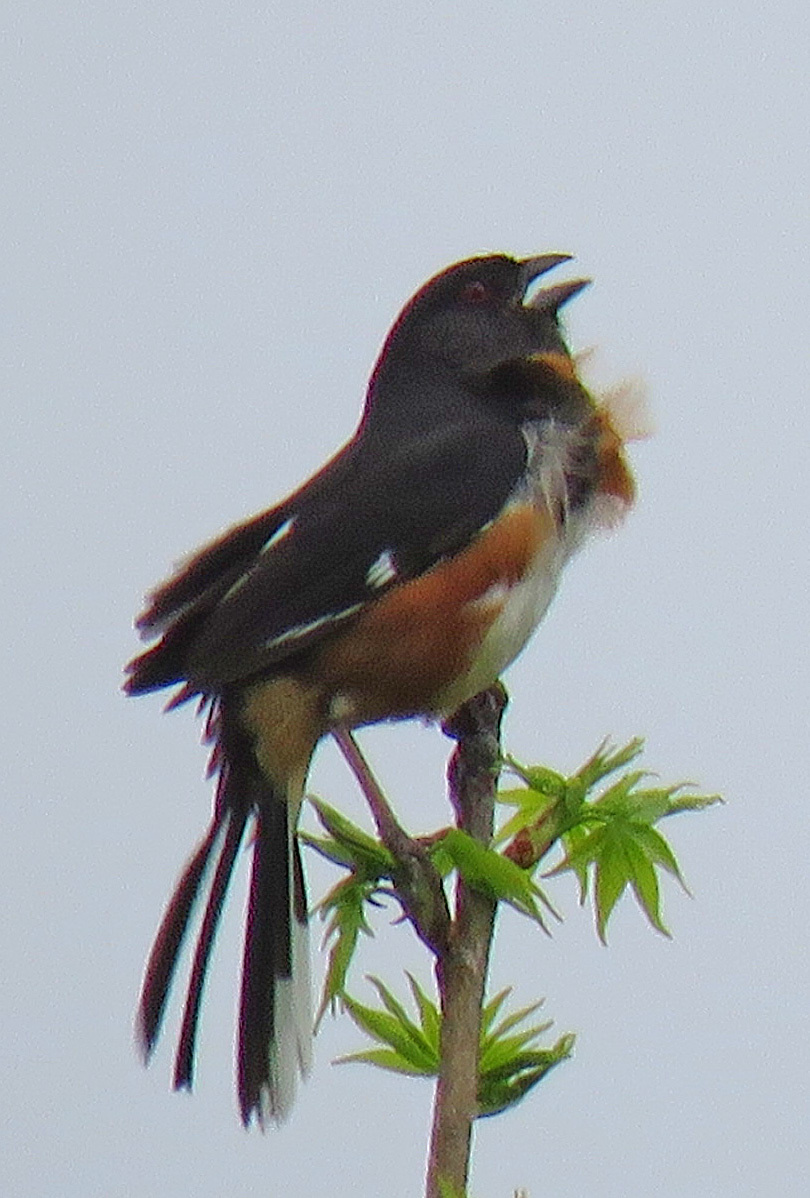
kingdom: Animalia
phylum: Chordata
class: Aves
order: Passeriformes
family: Passerellidae
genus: Pipilo
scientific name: Pipilo erythrophthalmus
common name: Eastern towhee
